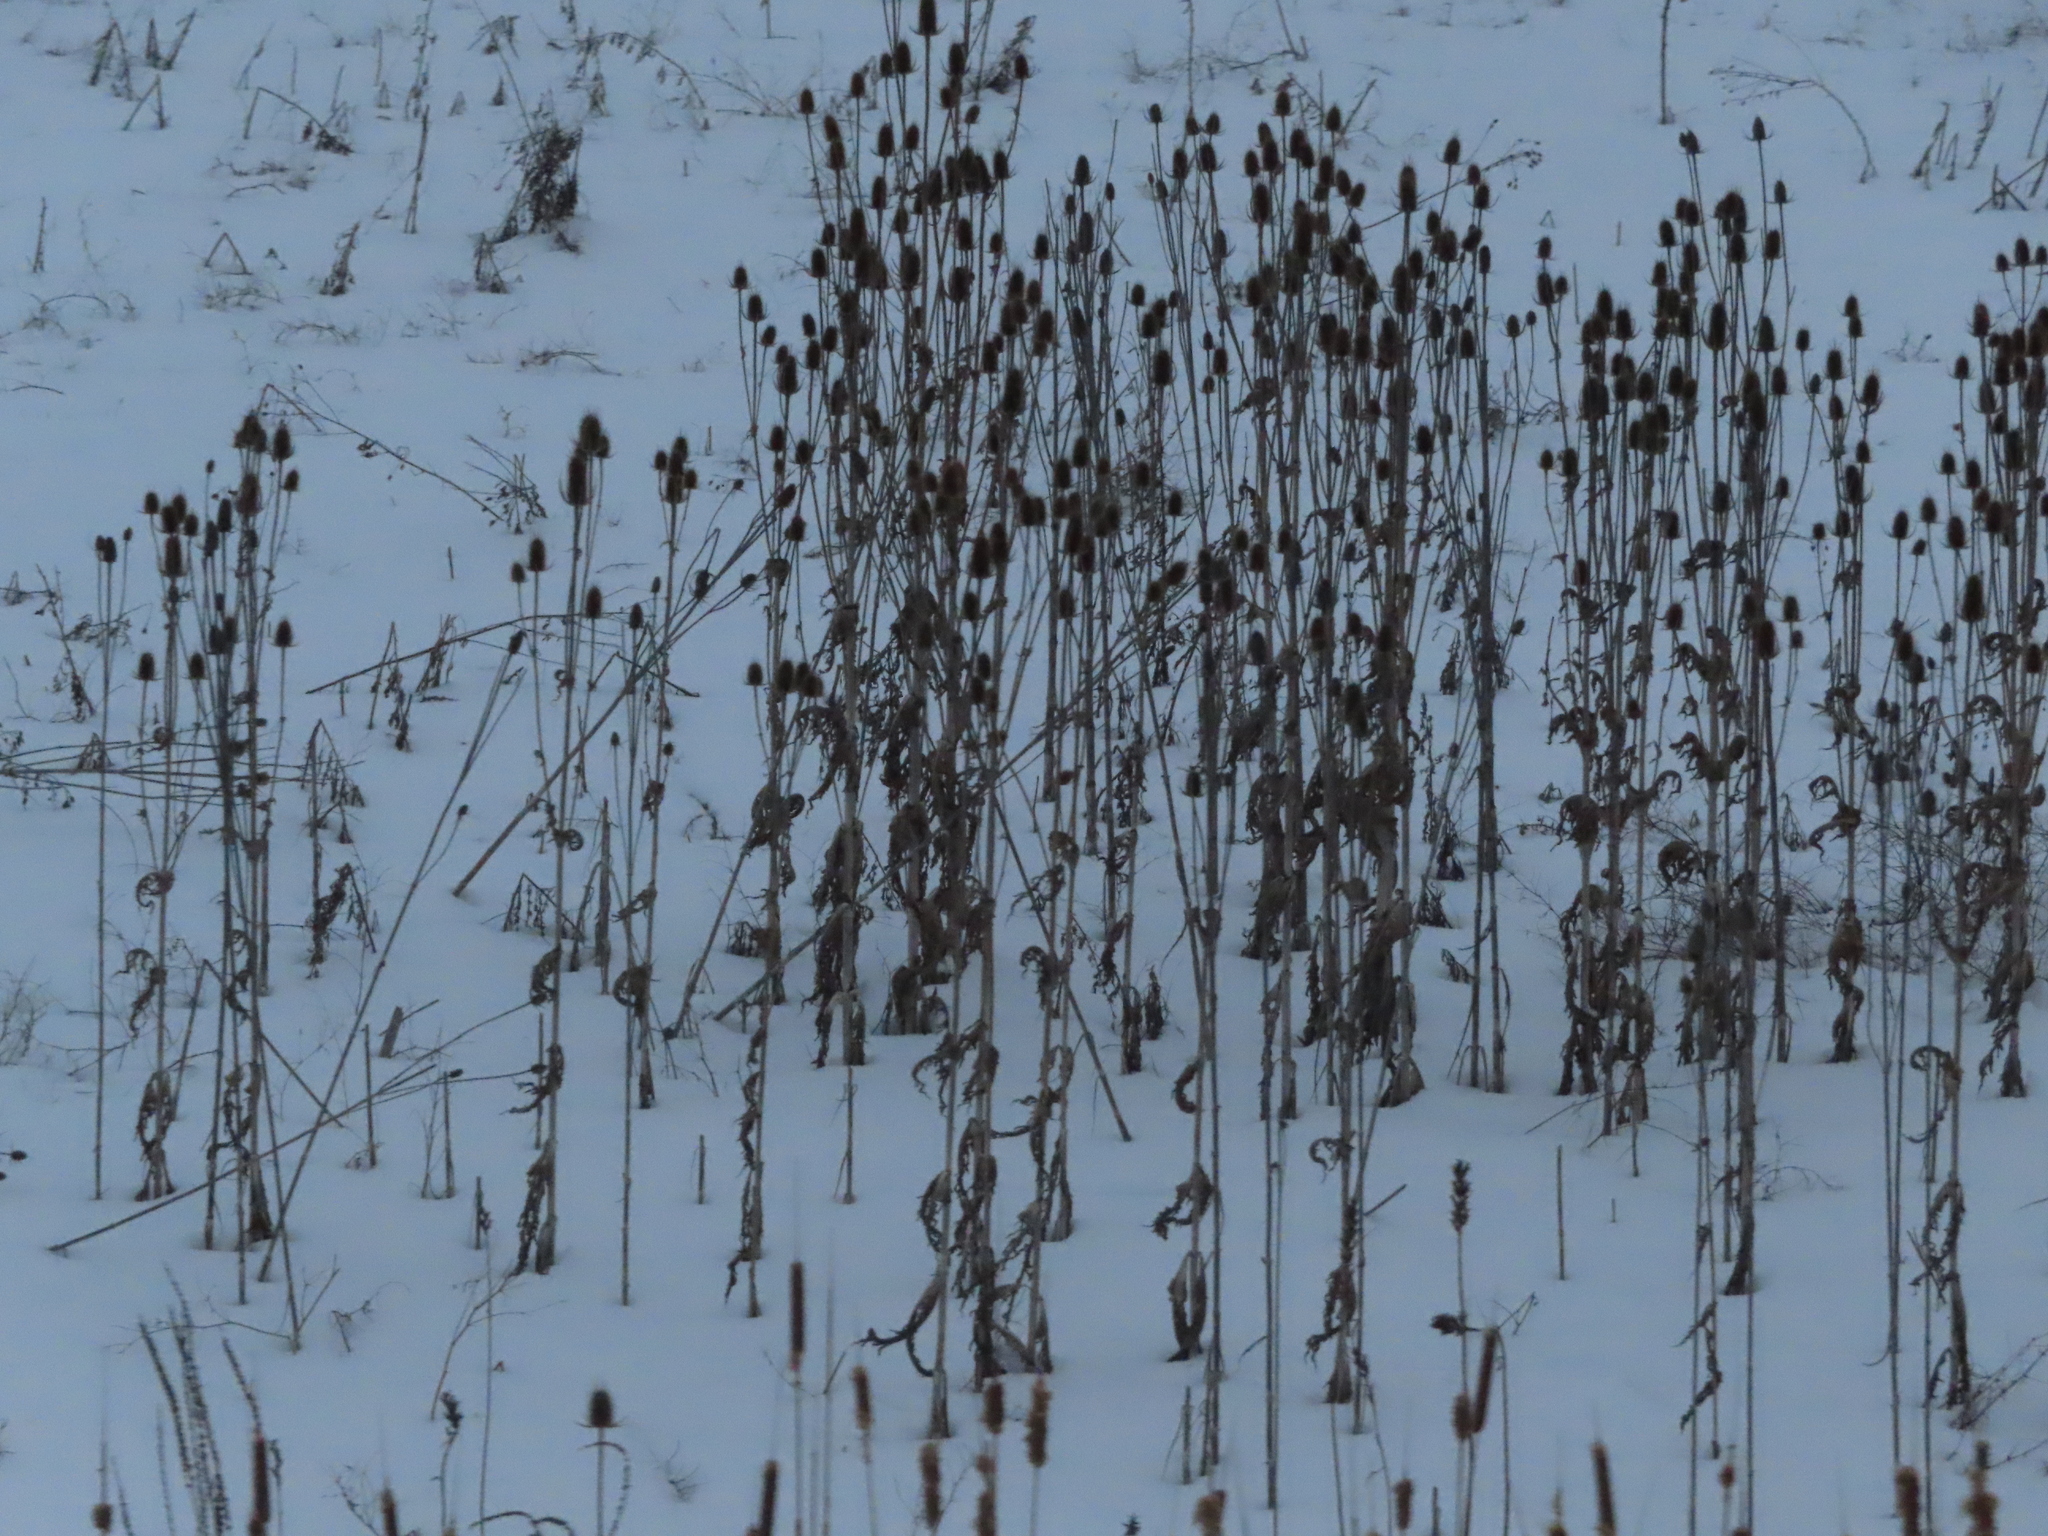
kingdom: Plantae
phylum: Tracheophyta
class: Magnoliopsida
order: Dipsacales
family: Caprifoliaceae
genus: Dipsacus
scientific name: Dipsacus laciniatus
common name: Cut-leaved teasel
